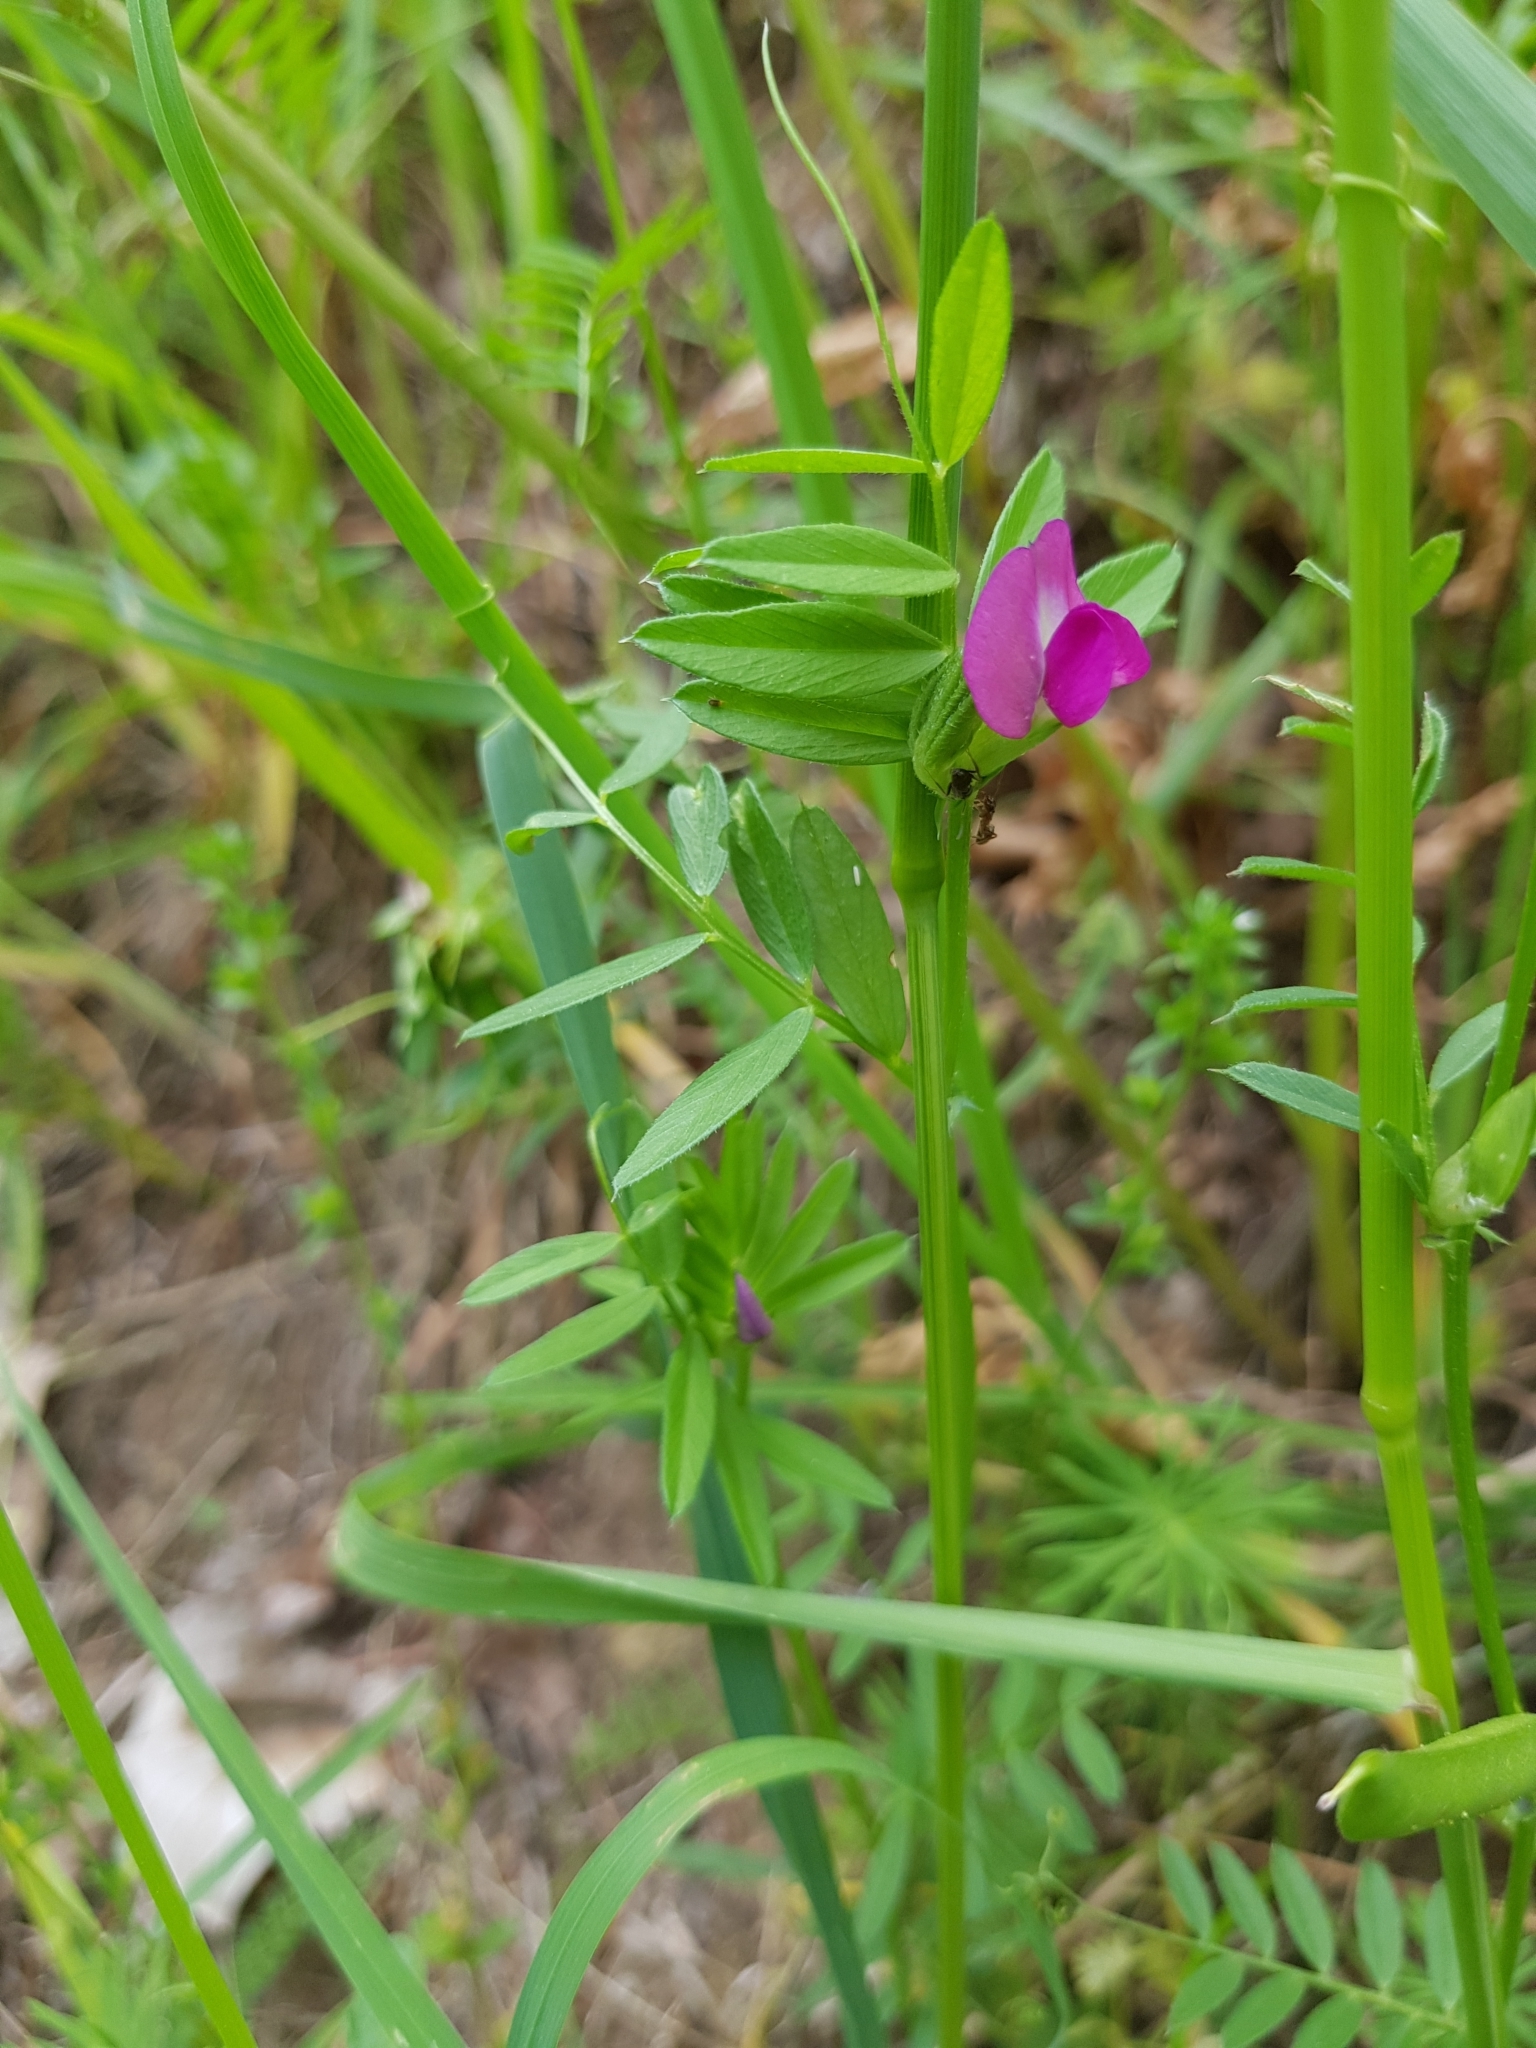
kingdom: Plantae
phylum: Tracheophyta
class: Magnoliopsida
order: Fabales
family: Fabaceae
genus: Vicia
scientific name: Vicia sativa
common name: Garden vetch
